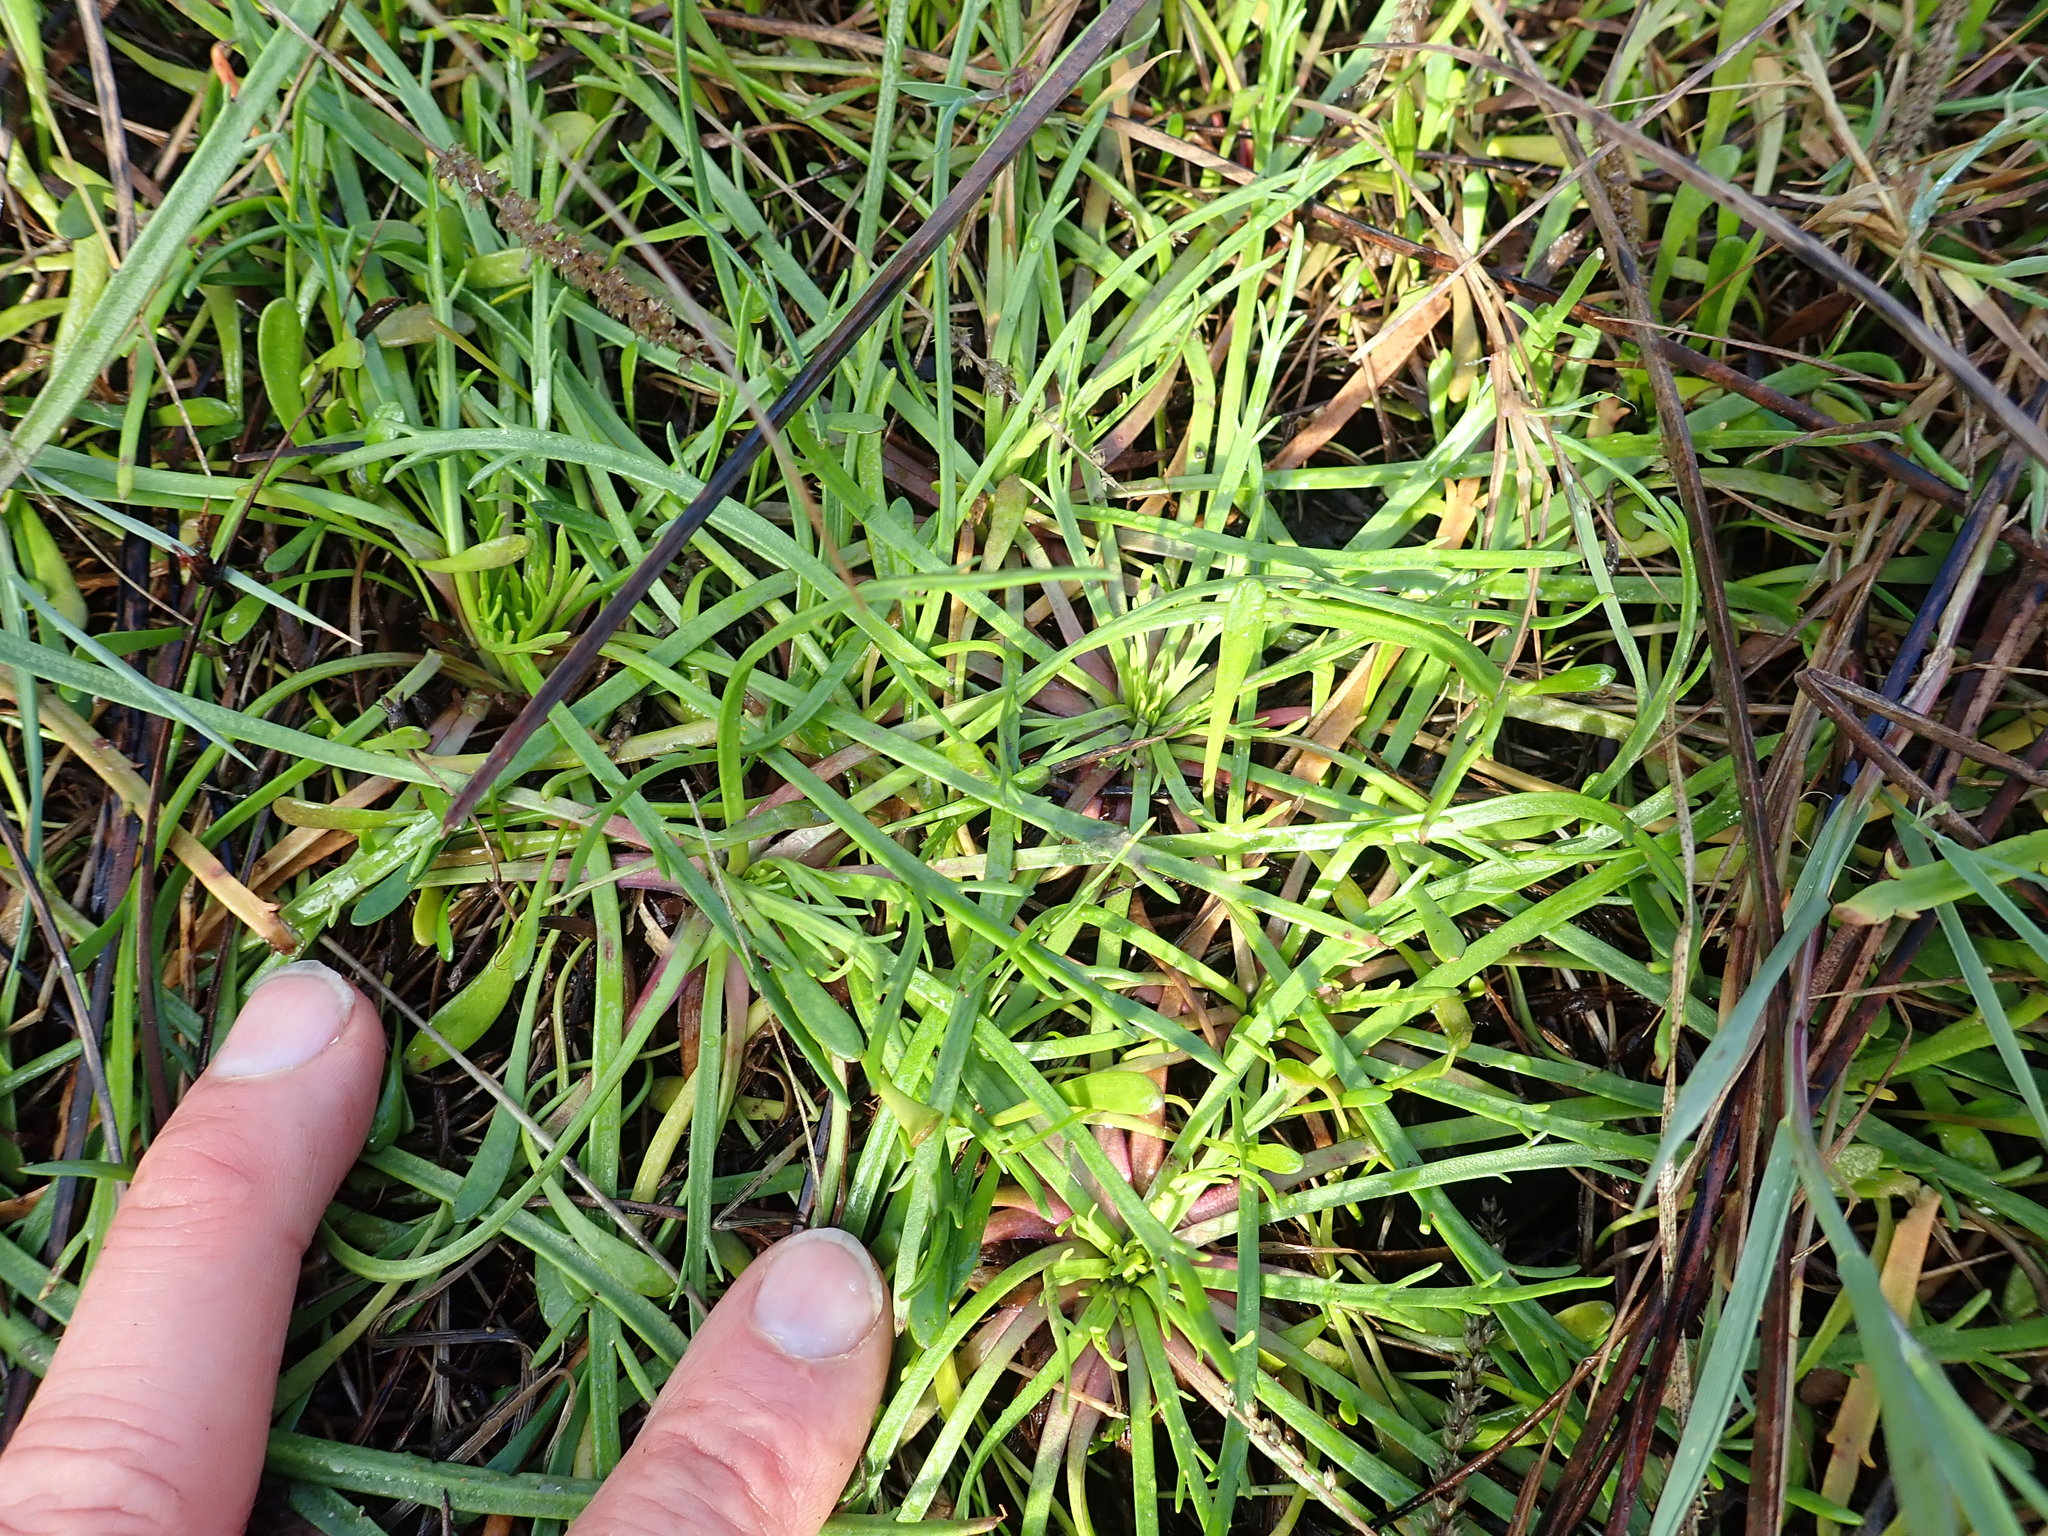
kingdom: Plantae
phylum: Tracheophyta
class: Magnoliopsida
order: Lamiales
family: Plantaginaceae
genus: Plantago
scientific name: Plantago coronopus
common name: Buck's-horn plantain
